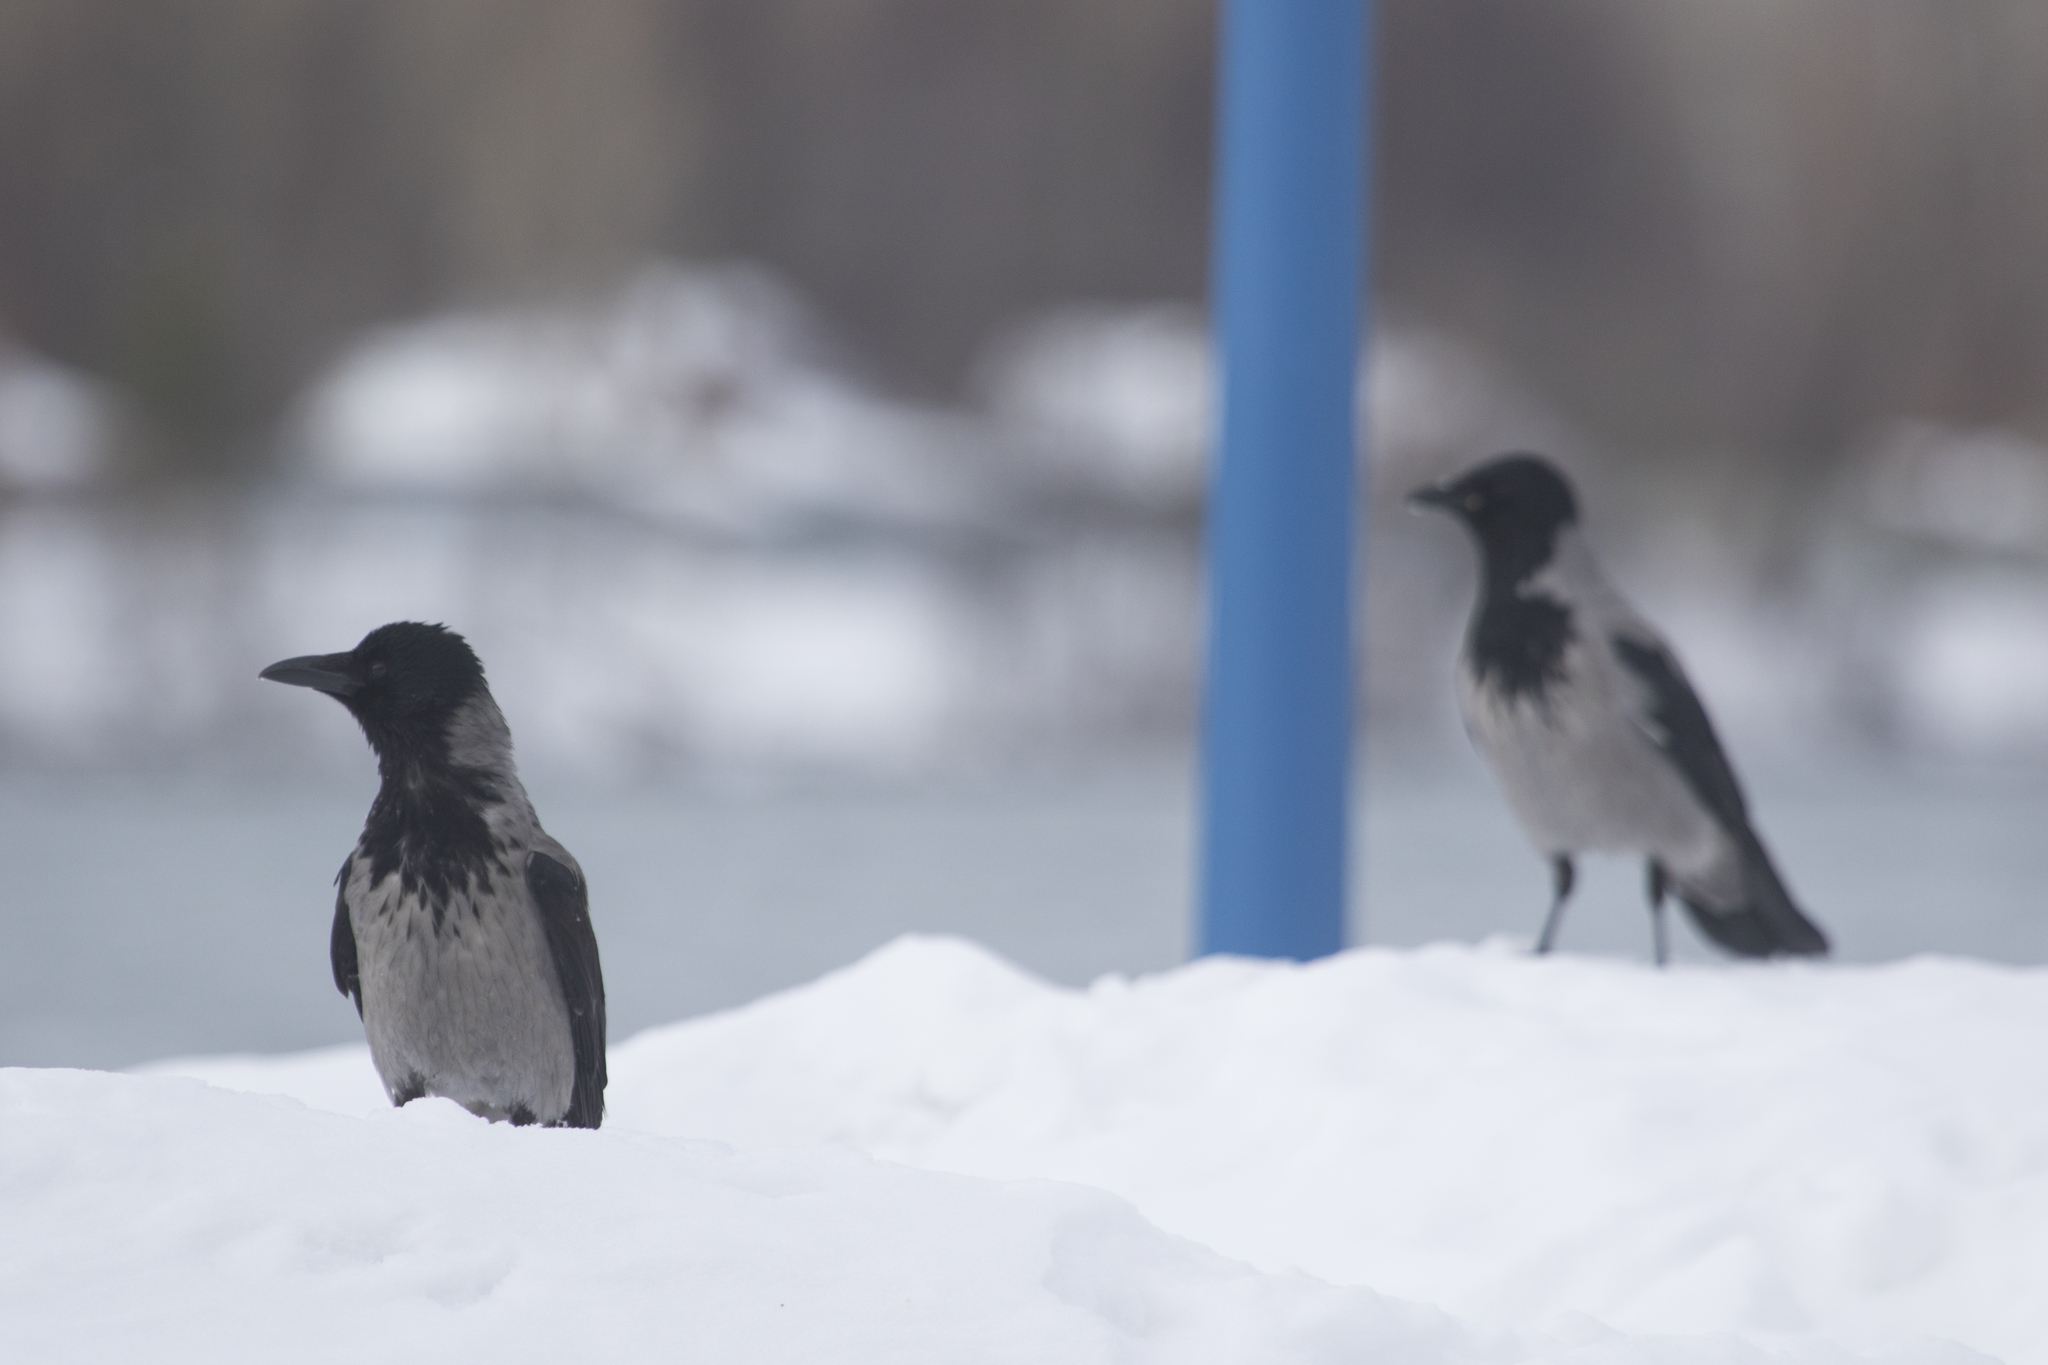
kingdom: Animalia
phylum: Chordata
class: Aves
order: Passeriformes
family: Corvidae
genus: Corvus
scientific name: Corvus cornix
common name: Hooded crow
